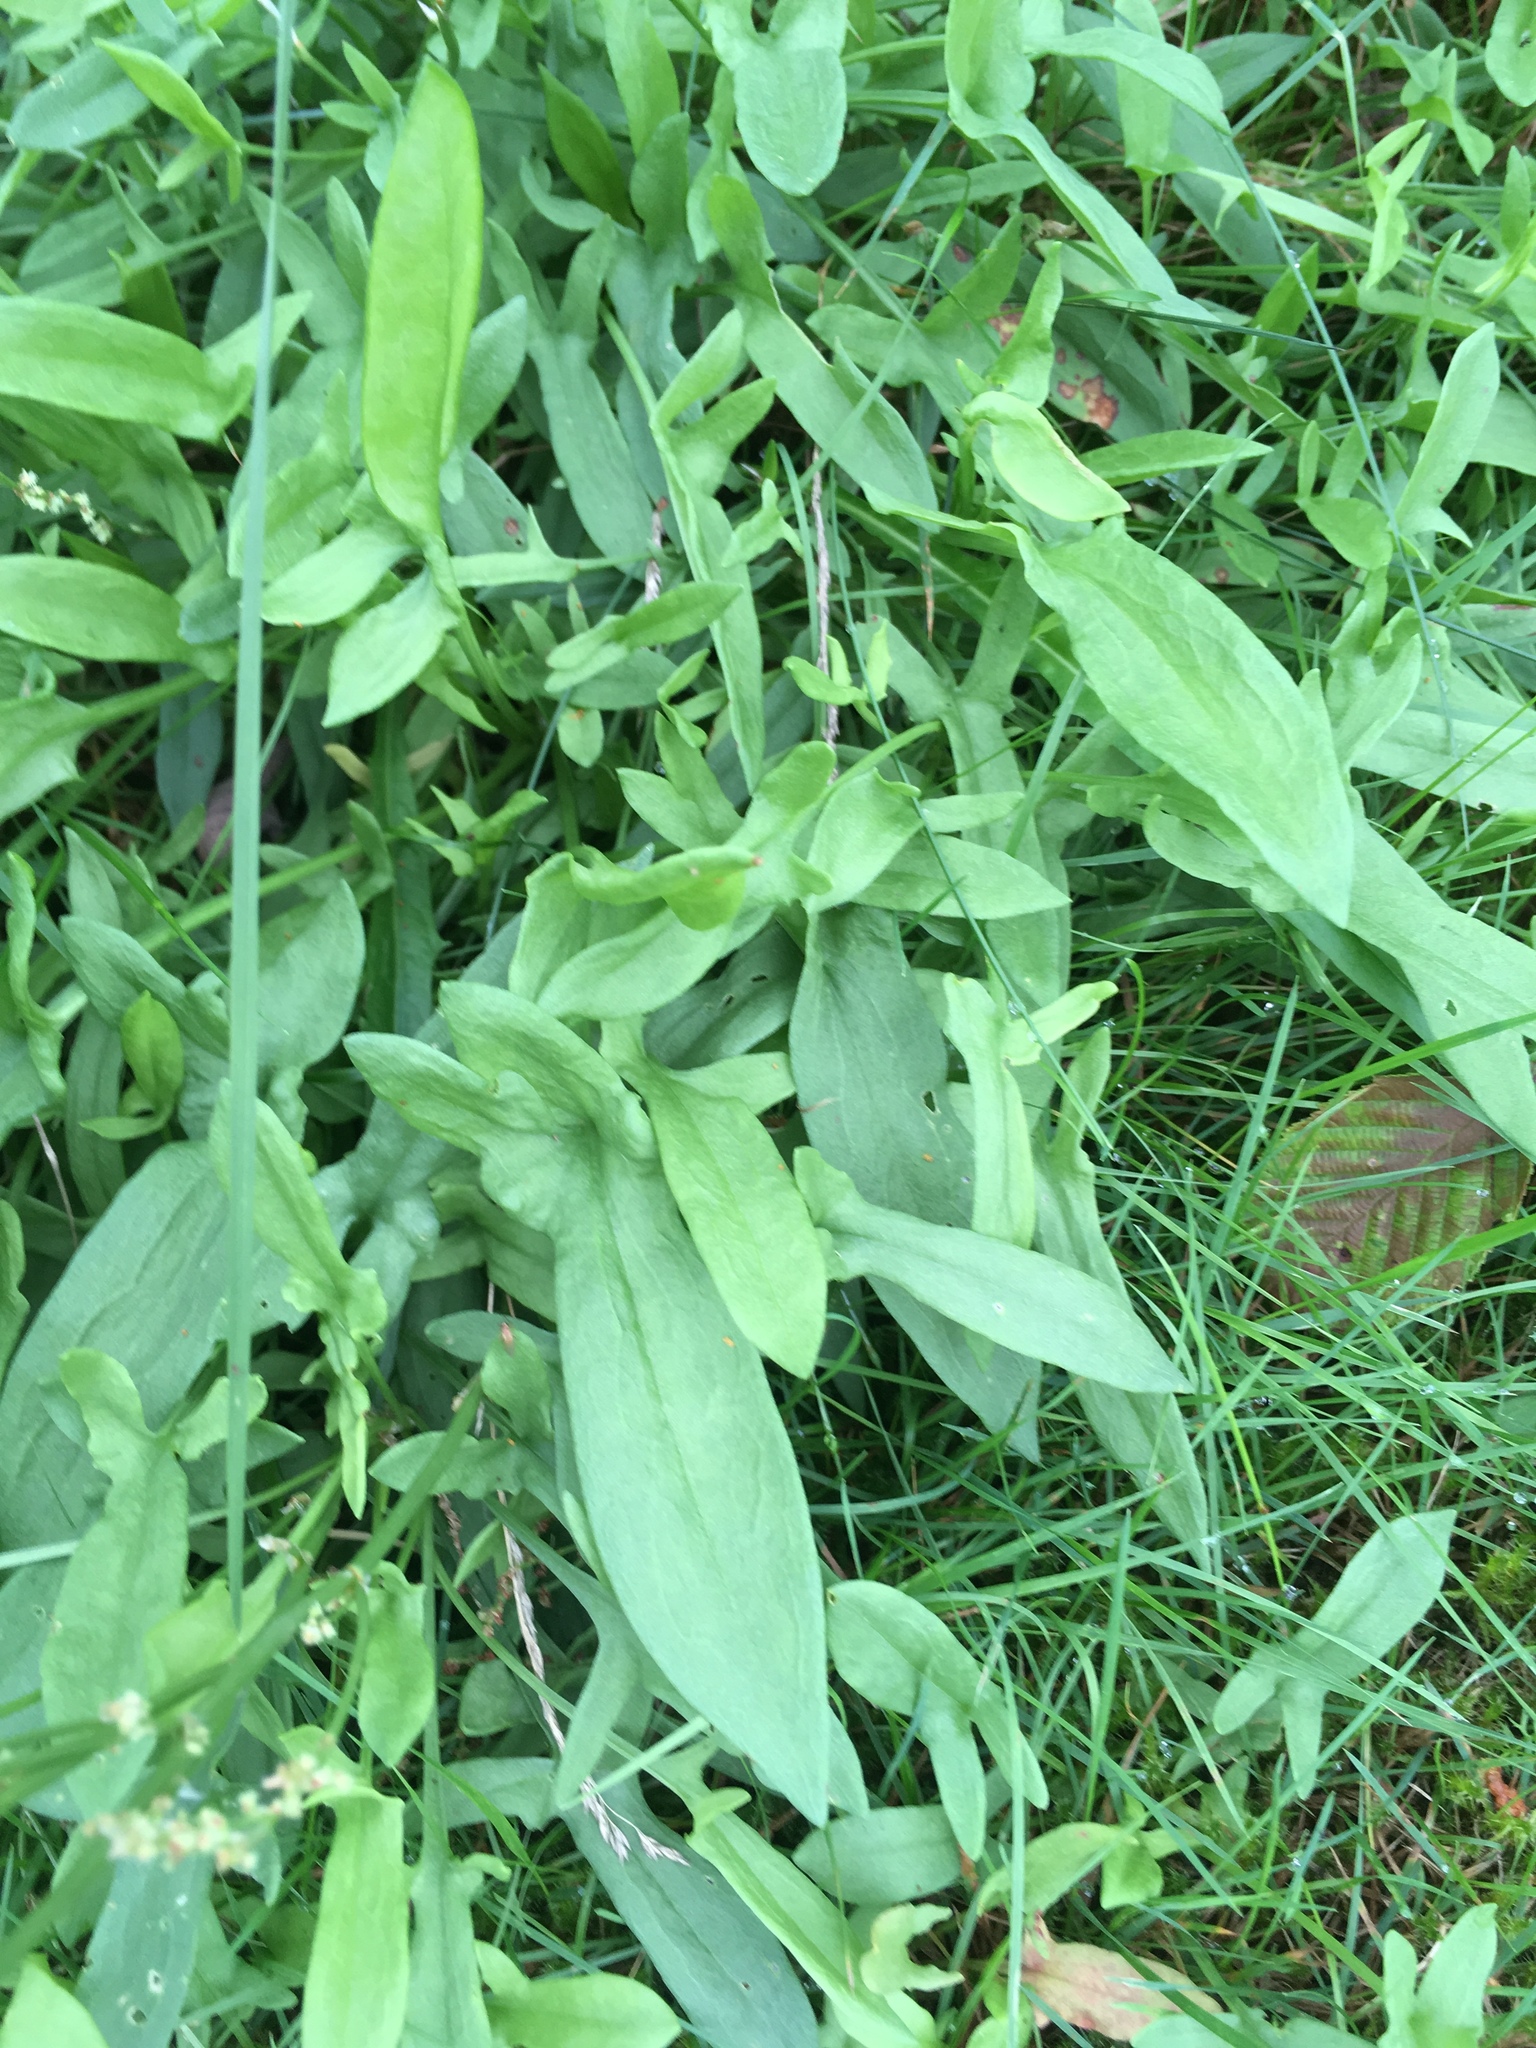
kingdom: Plantae
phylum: Tracheophyta
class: Magnoliopsida
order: Caryophyllales
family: Polygonaceae
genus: Rumex
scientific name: Rumex acetosella
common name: Common sheep sorrel
